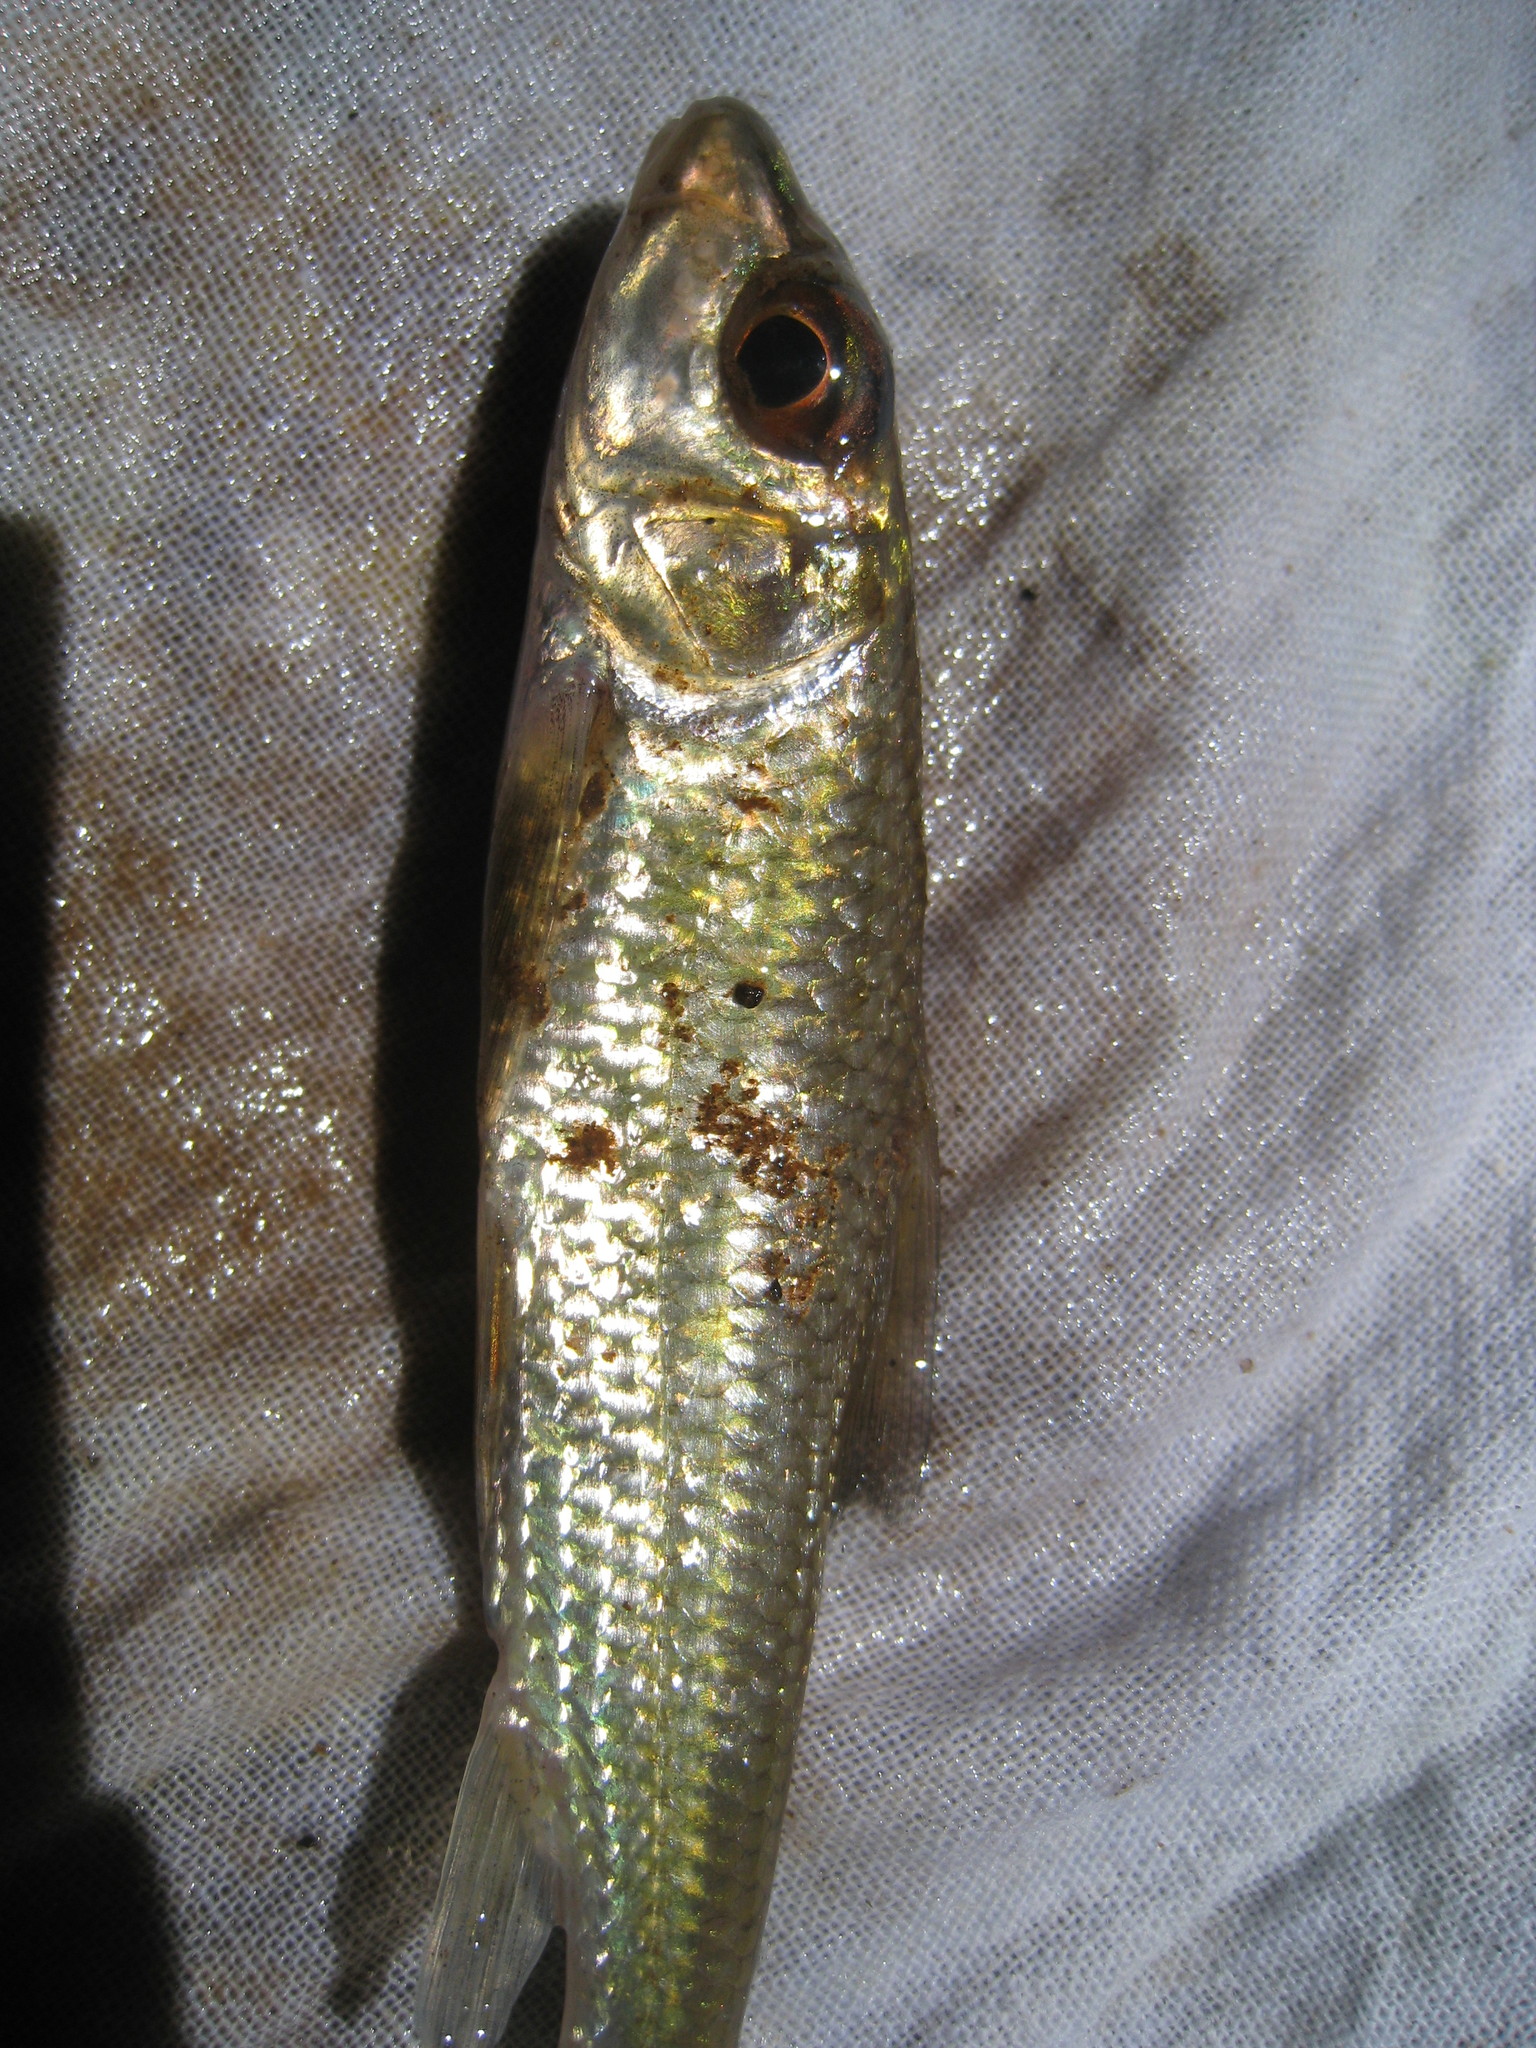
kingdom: Animalia
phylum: Chordata
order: Cypriniformes
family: Cyprinidae
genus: Tariqilabeo
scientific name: Tariqilabeo
